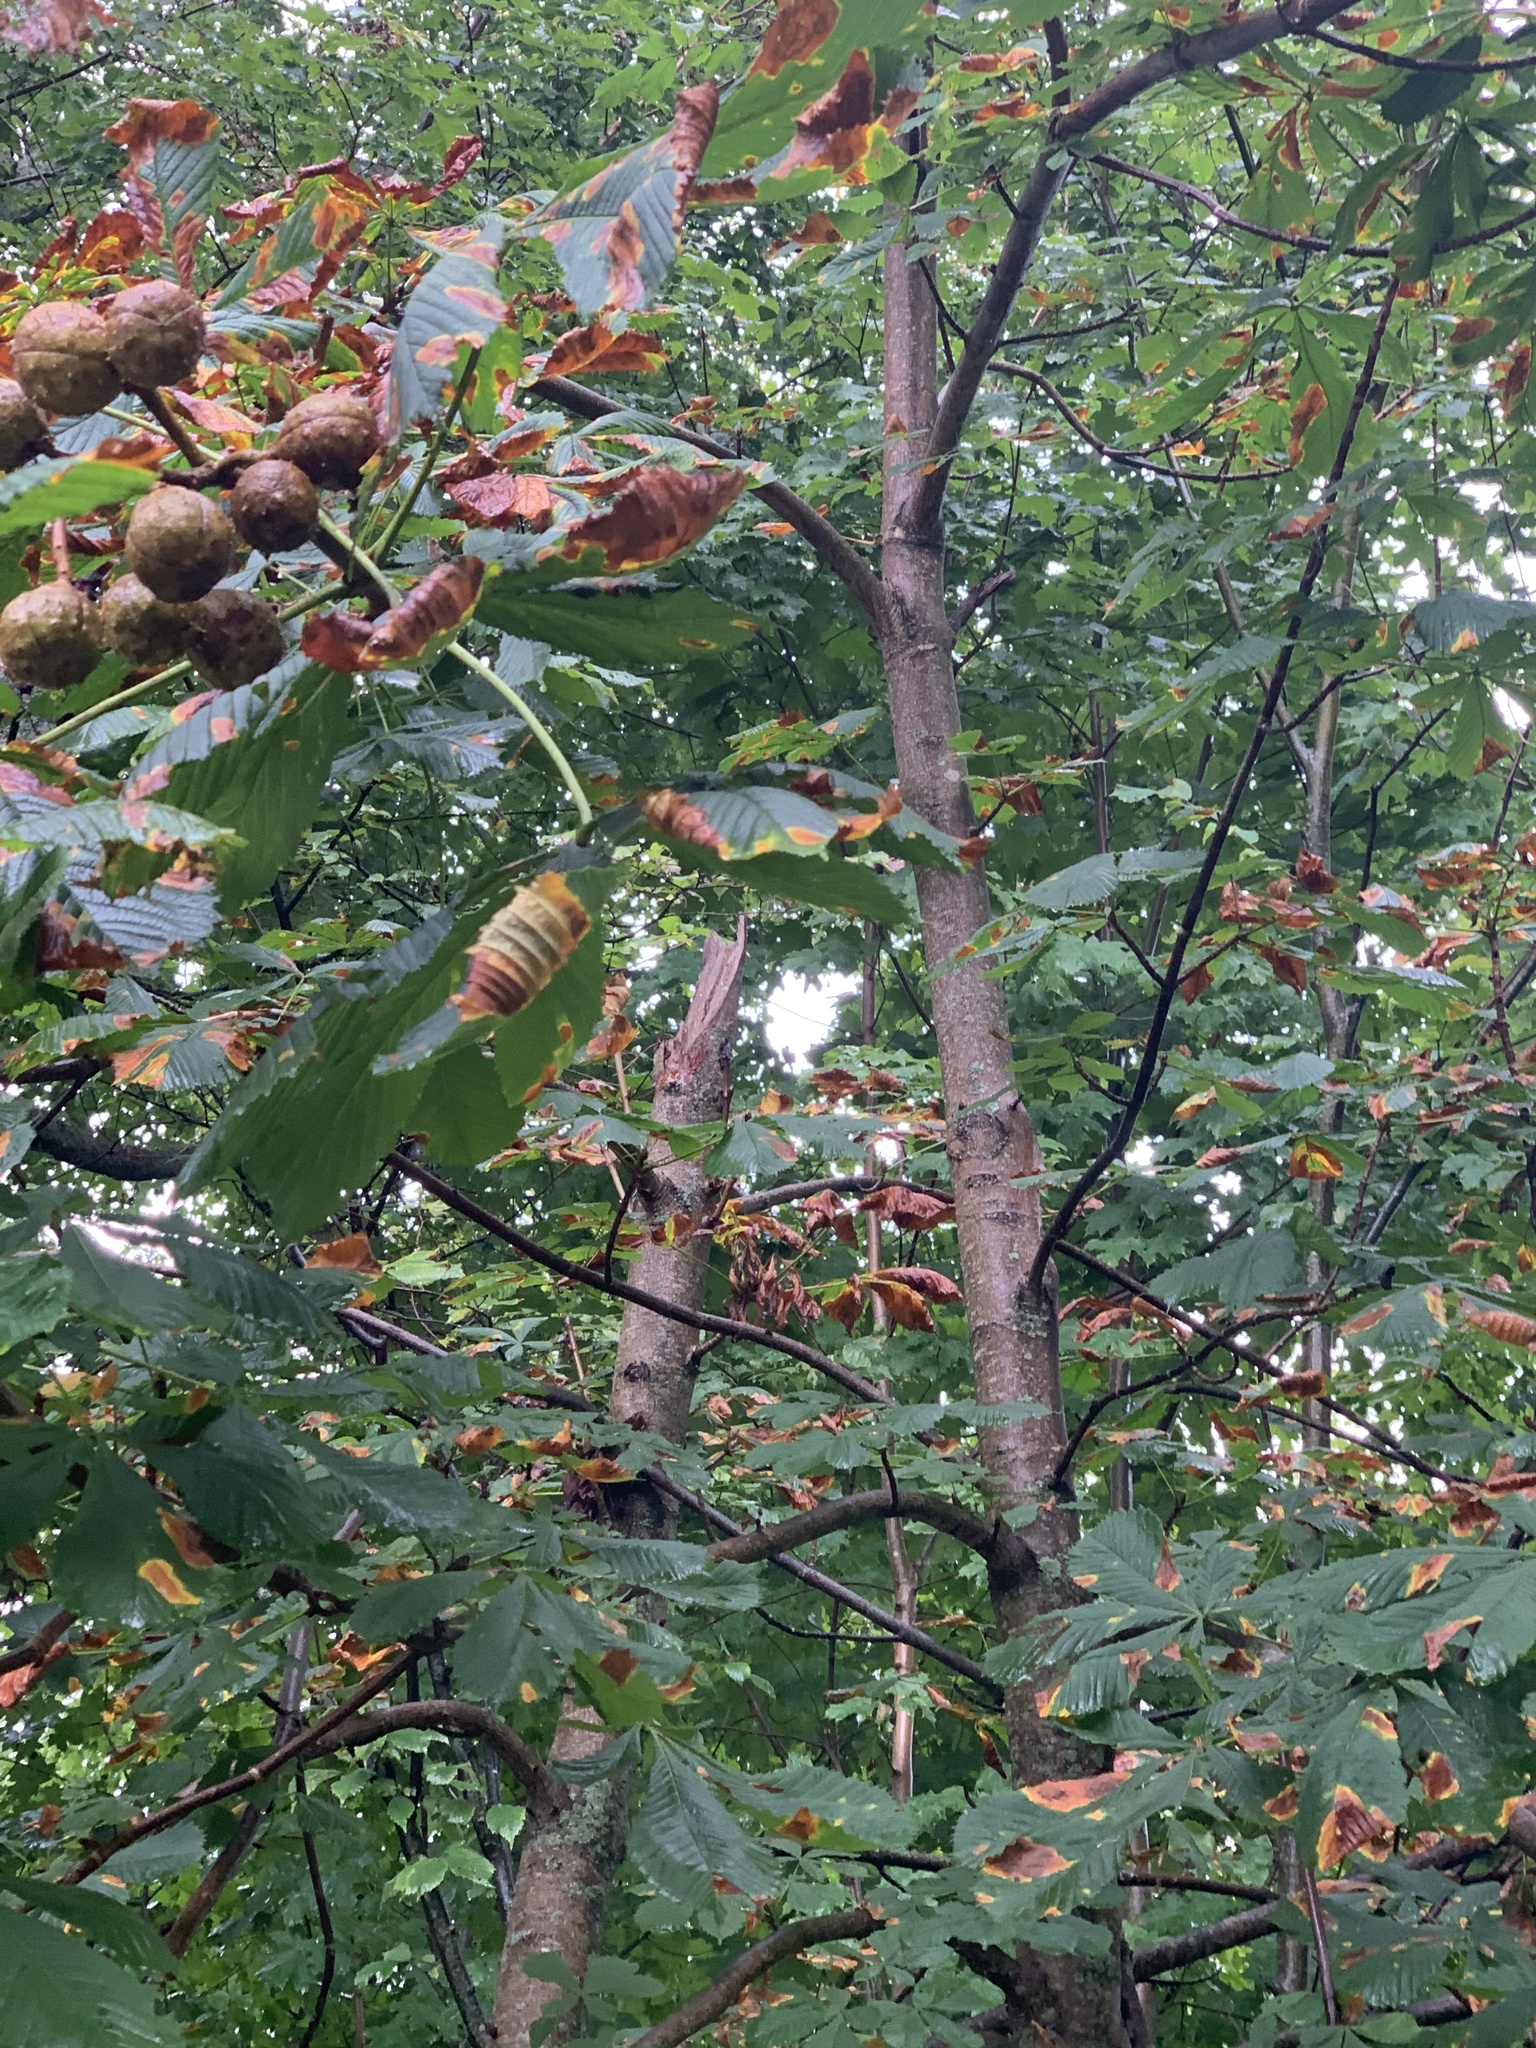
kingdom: Plantae
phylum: Tracheophyta
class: Magnoliopsida
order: Sapindales
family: Sapindaceae
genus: Aesculus
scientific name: Aesculus hippocastanum
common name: Horse-chestnut
